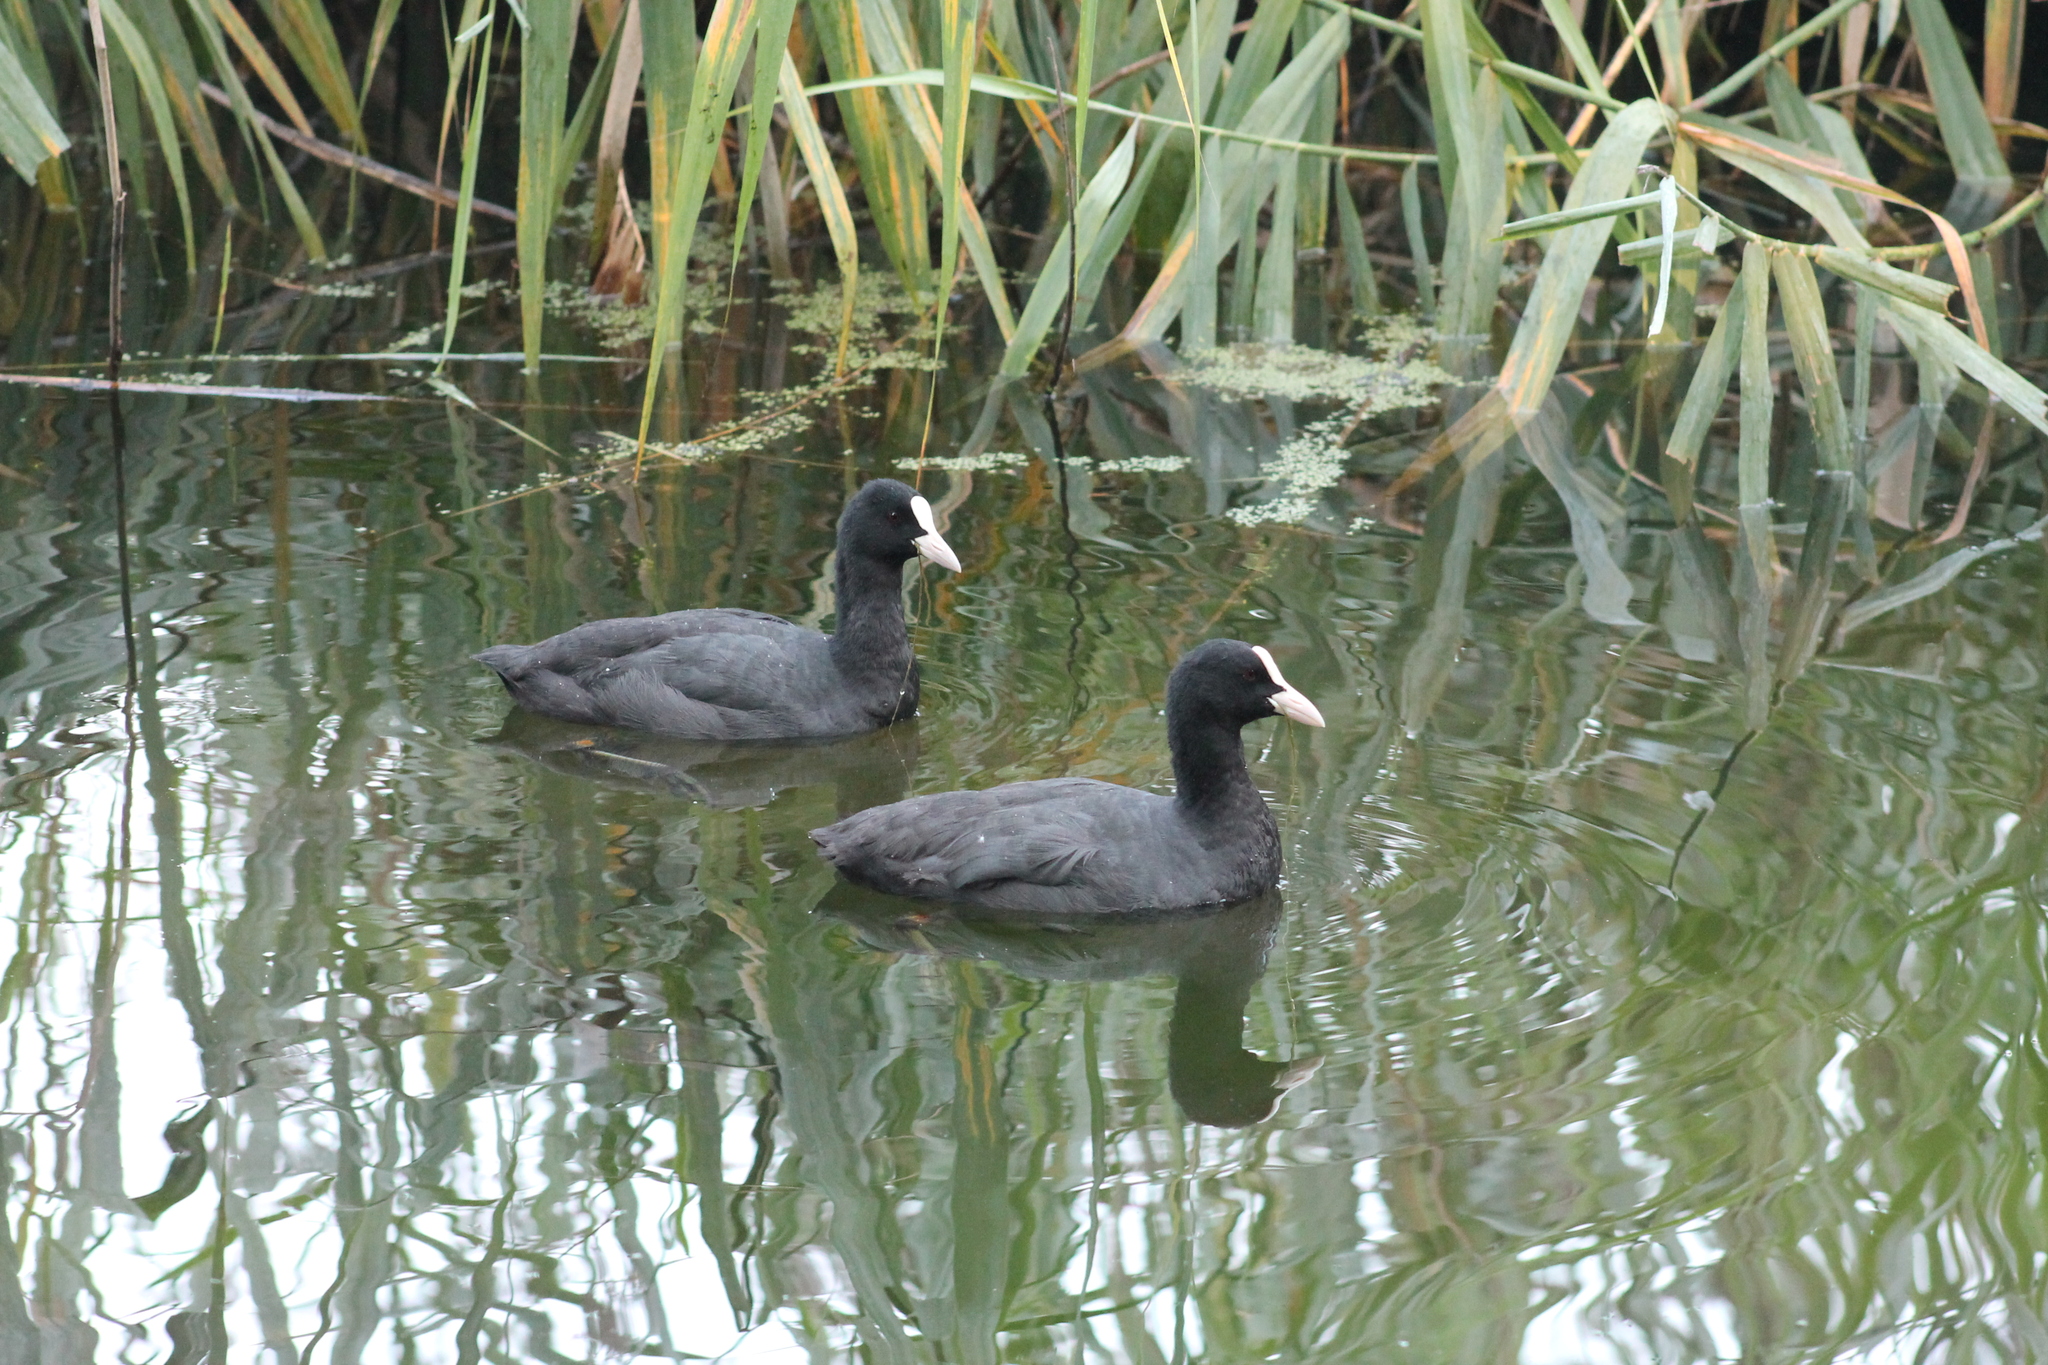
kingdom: Animalia
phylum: Chordata
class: Aves
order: Gruiformes
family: Rallidae
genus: Fulica
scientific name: Fulica atra
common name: Eurasian coot
